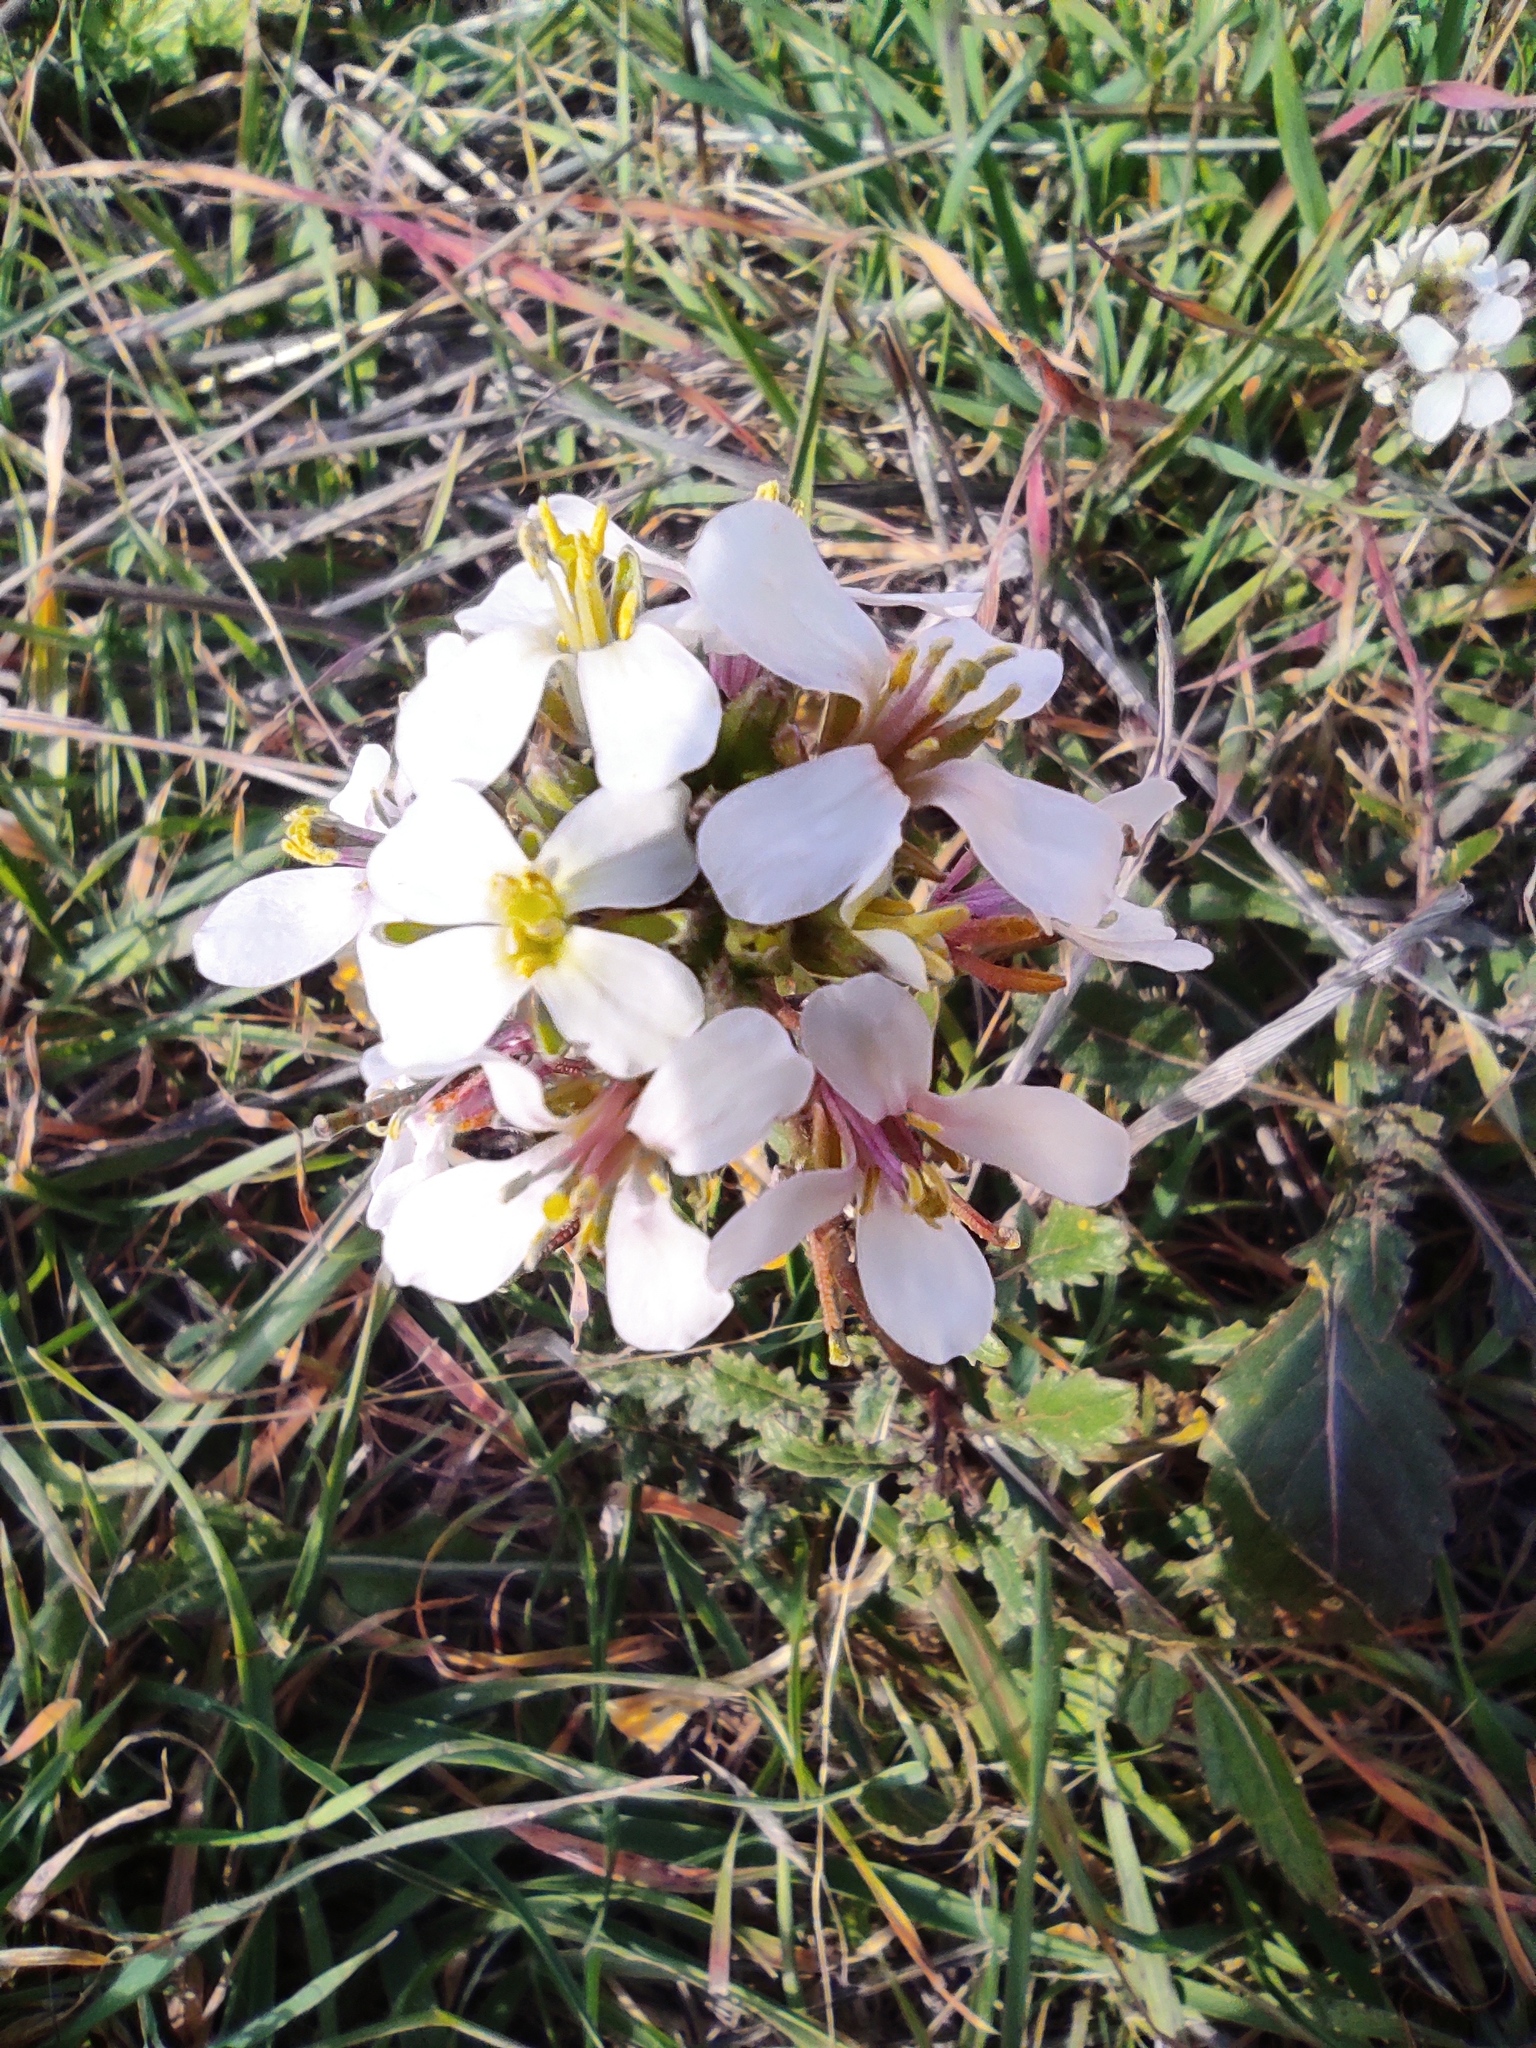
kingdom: Plantae
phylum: Tracheophyta
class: Magnoliopsida
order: Brassicales
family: Brassicaceae
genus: Diplotaxis
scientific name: Diplotaxis erucoides
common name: White rocket
